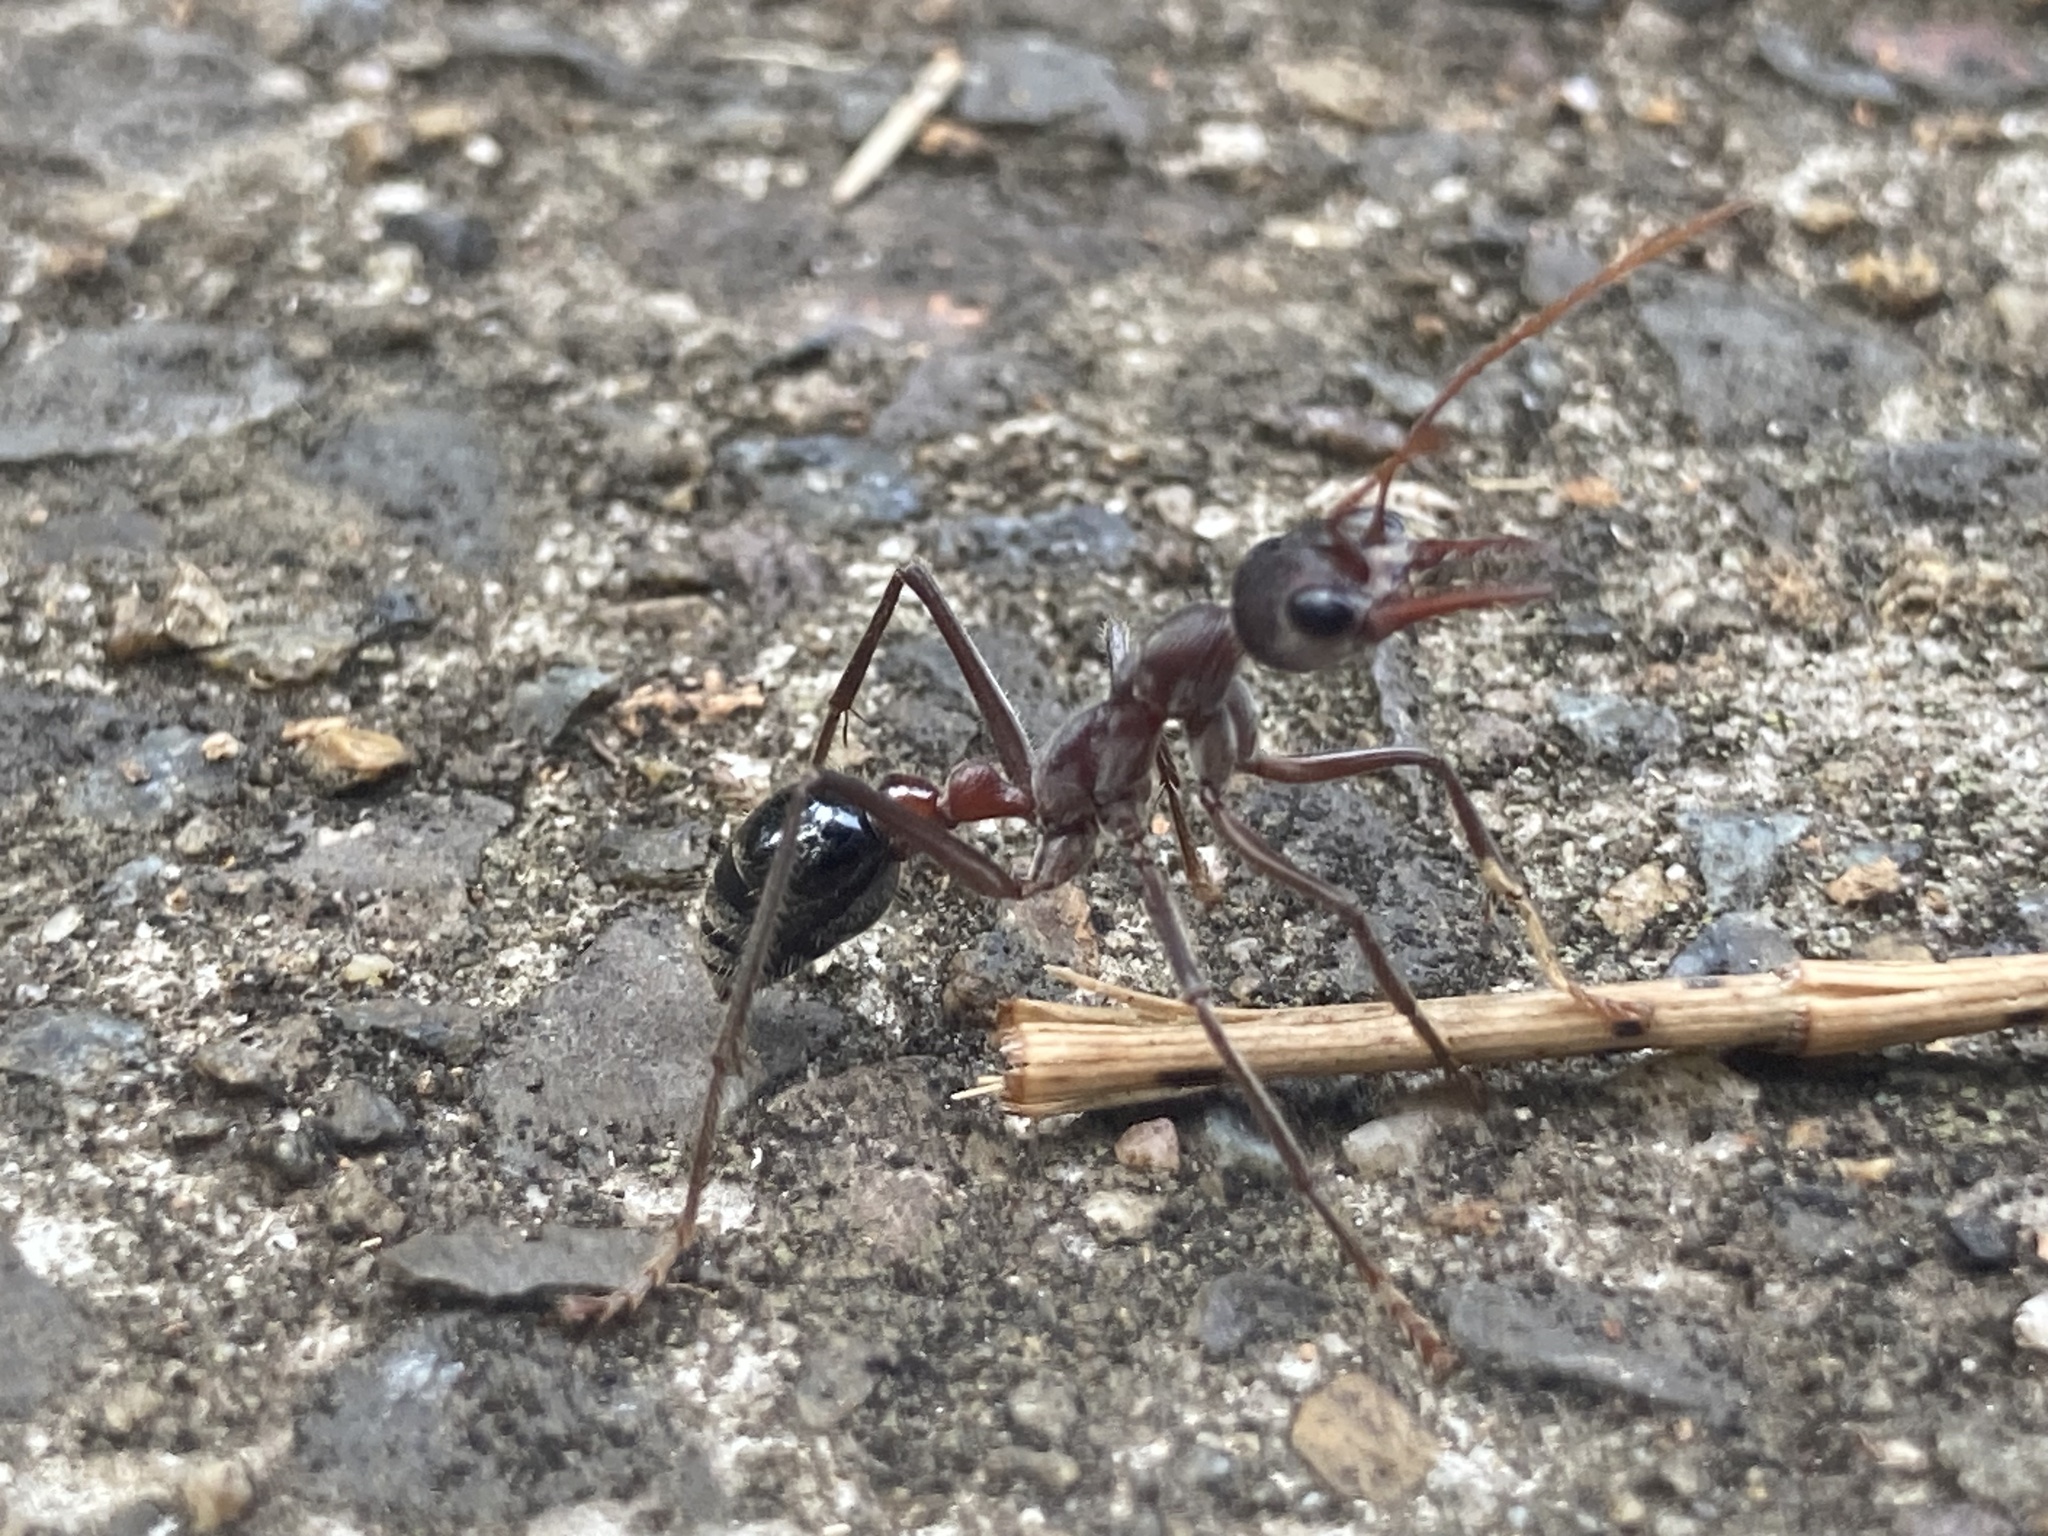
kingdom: Animalia
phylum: Arthropoda
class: Insecta
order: Hymenoptera
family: Formicidae
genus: Myrmecia
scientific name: Myrmecia simillima
